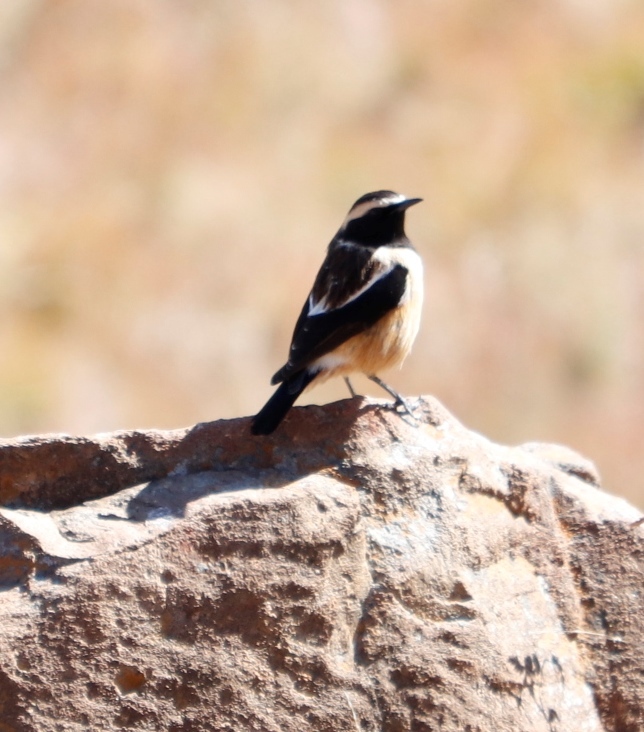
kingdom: Animalia
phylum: Chordata
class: Aves
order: Passeriformes
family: Muscicapidae
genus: Campicoloides
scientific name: Campicoloides bifasciatus
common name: Buff-streaked chat
